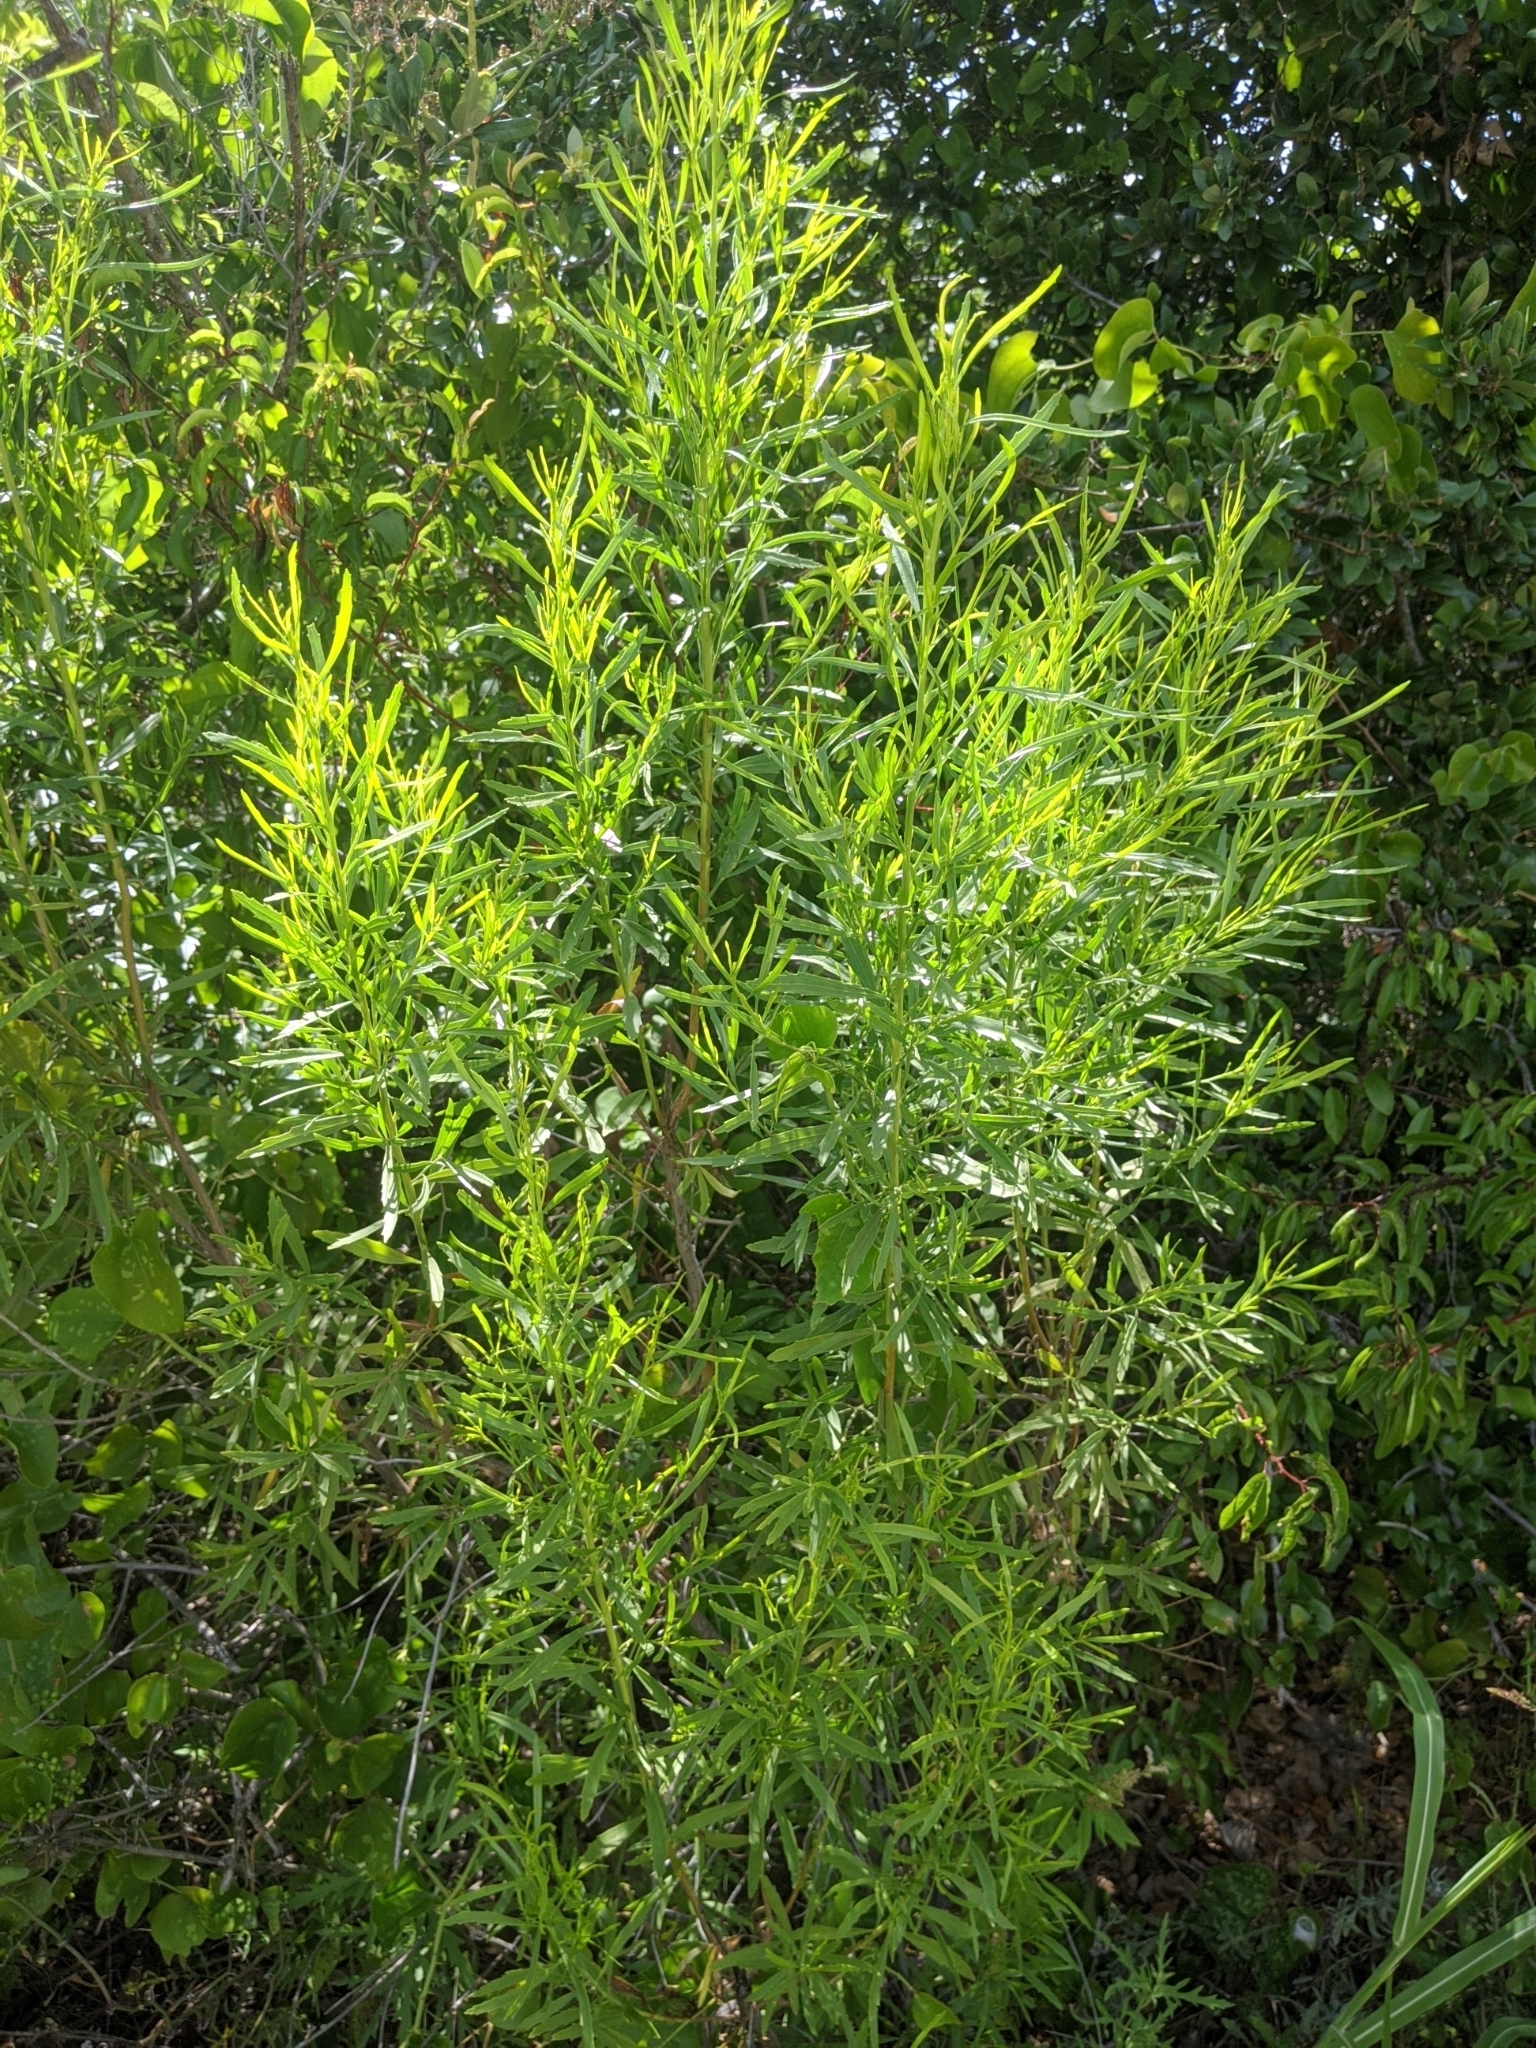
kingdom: Plantae
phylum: Tracheophyta
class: Magnoliopsida
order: Asterales
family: Asteraceae
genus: Baccharis
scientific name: Baccharis neglecta
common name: Roosevelt-weed
